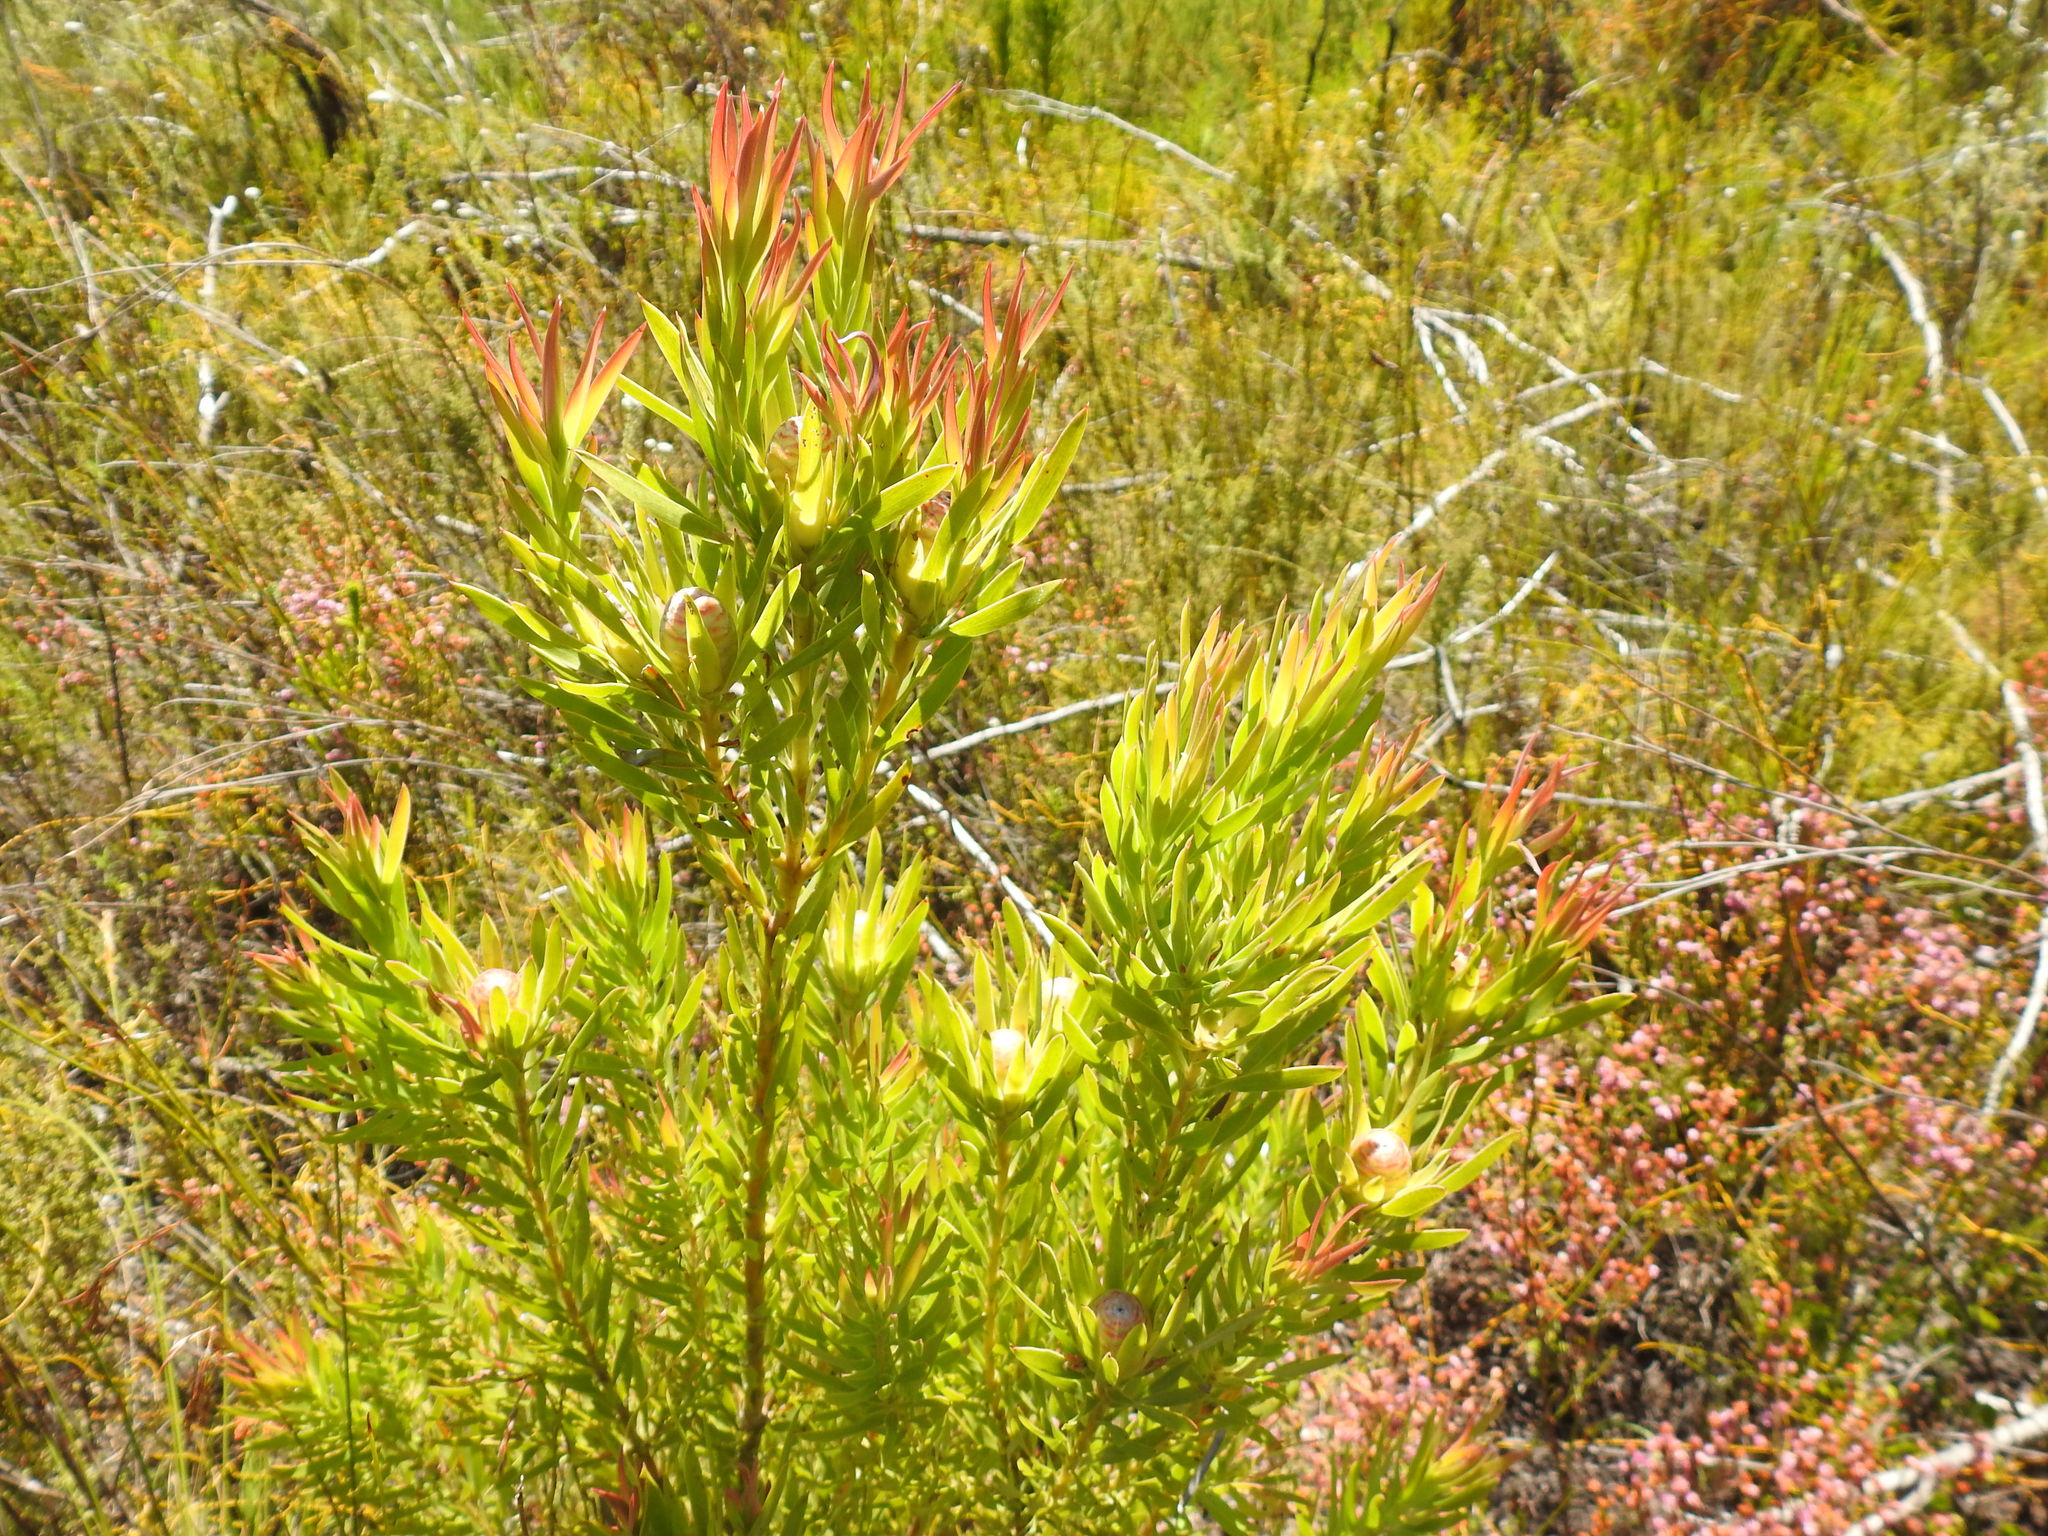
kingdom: Plantae
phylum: Tracheophyta
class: Magnoliopsida
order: Proteales
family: Proteaceae
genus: Leucadendron
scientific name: Leucadendron xanthoconus
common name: Sickle-leaf conebush
